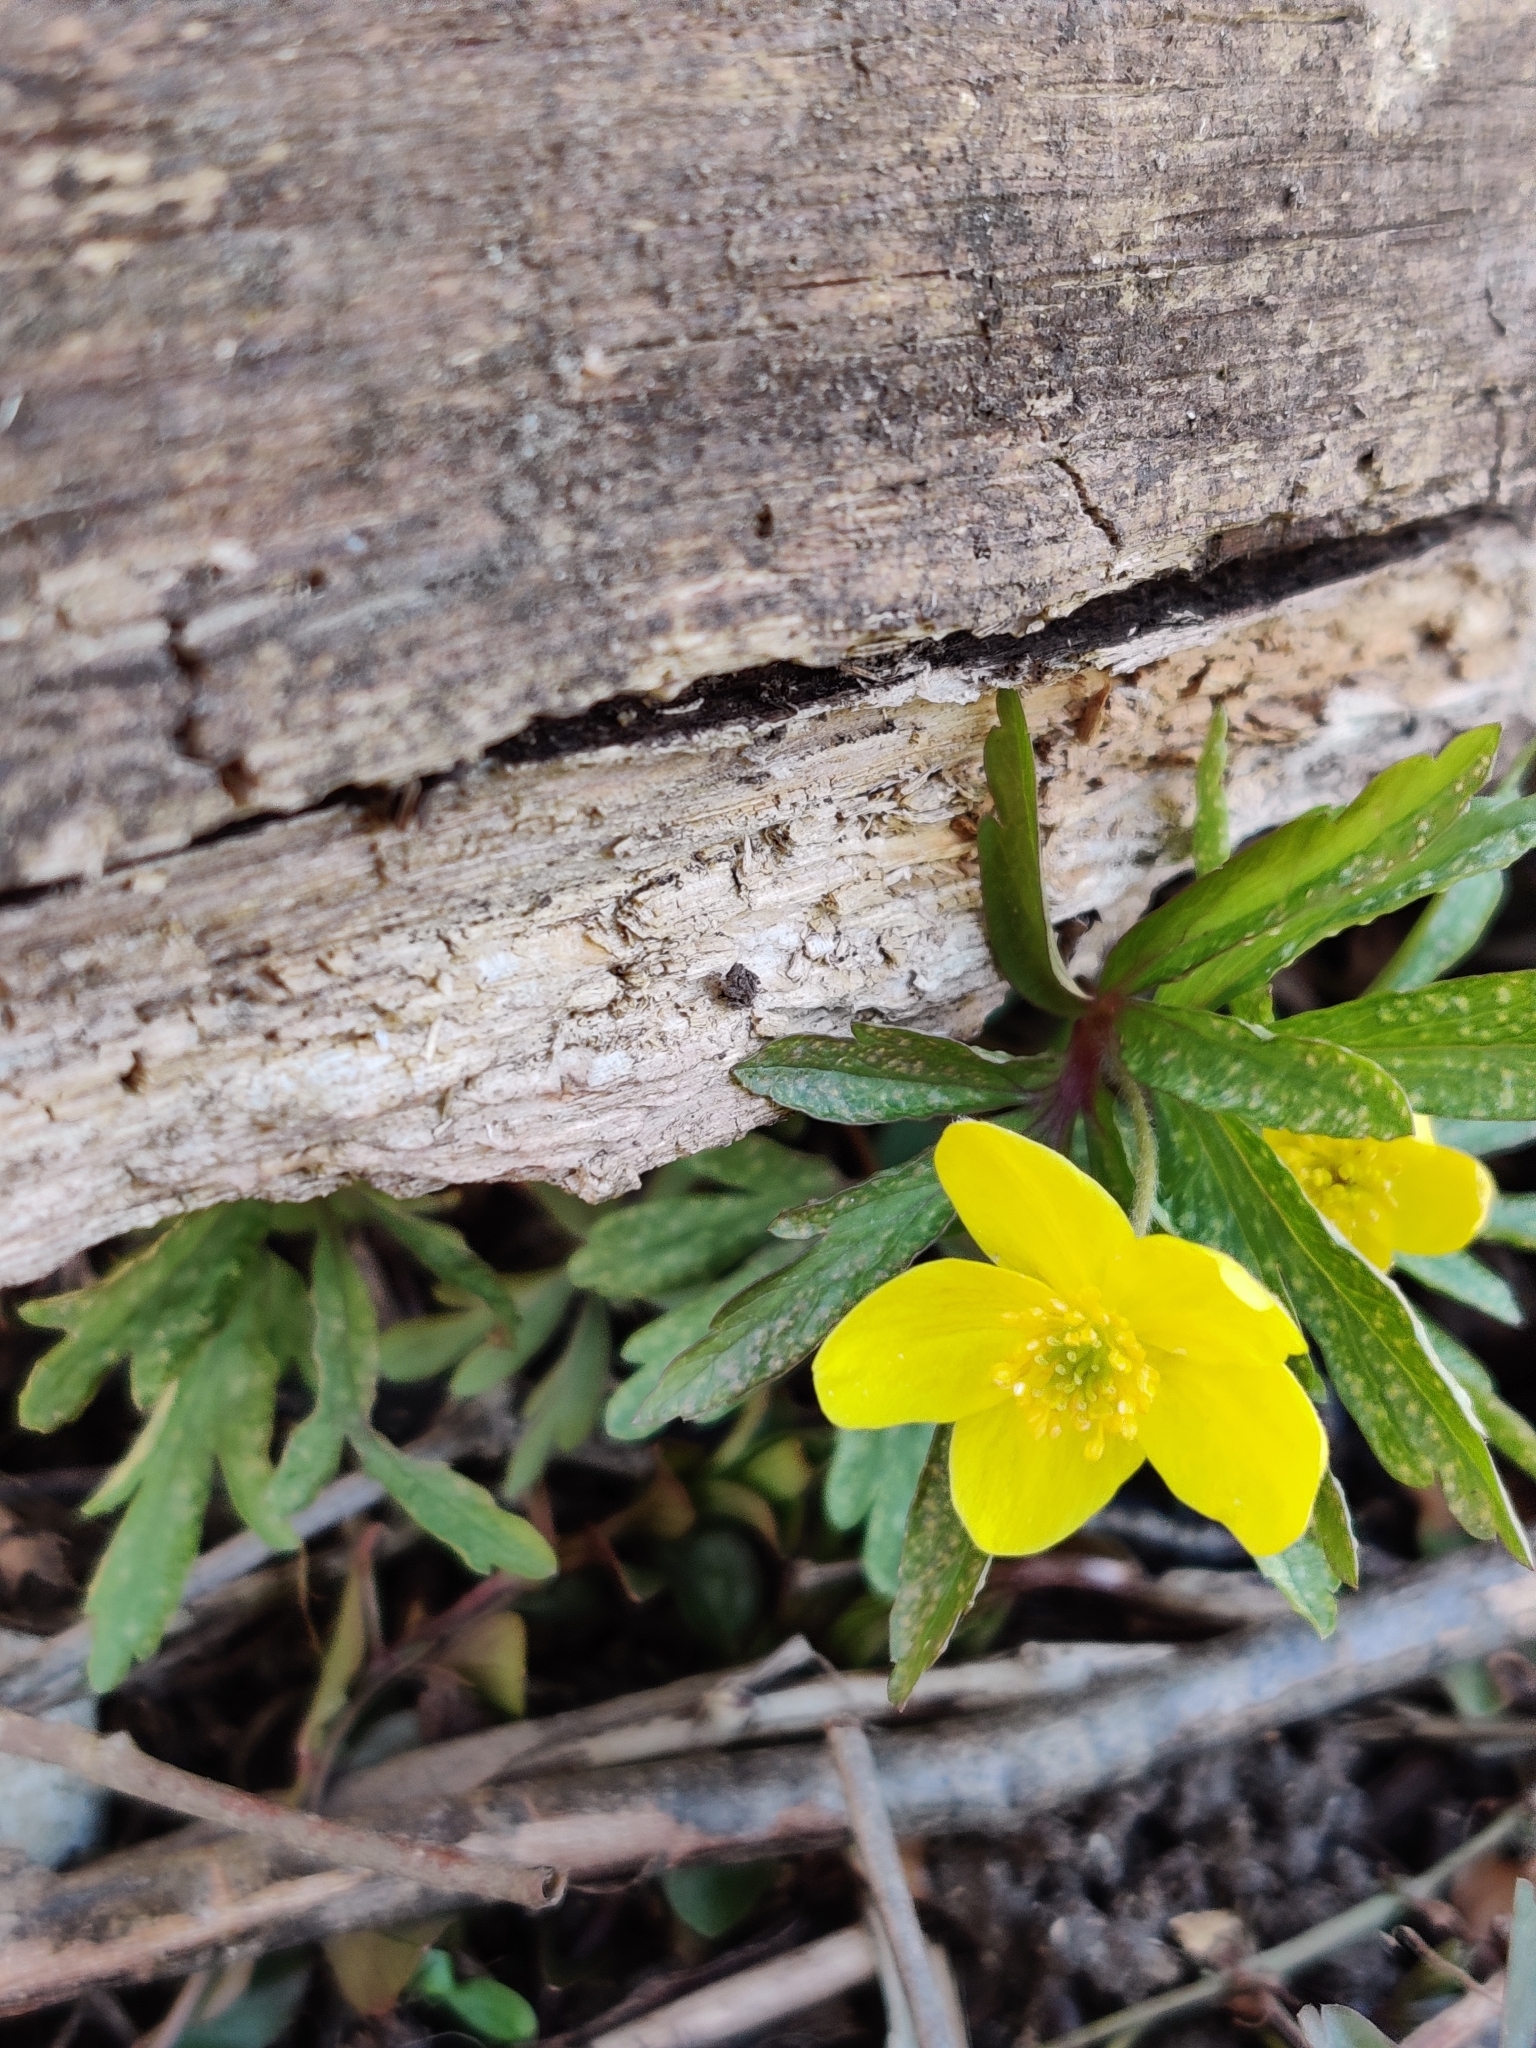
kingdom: Plantae
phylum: Tracheophyta
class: Magnoliopsida
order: Ranunculales
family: Ranunculaceae
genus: Anemone
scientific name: Anemone ranunculoides
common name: Yellow anemone
